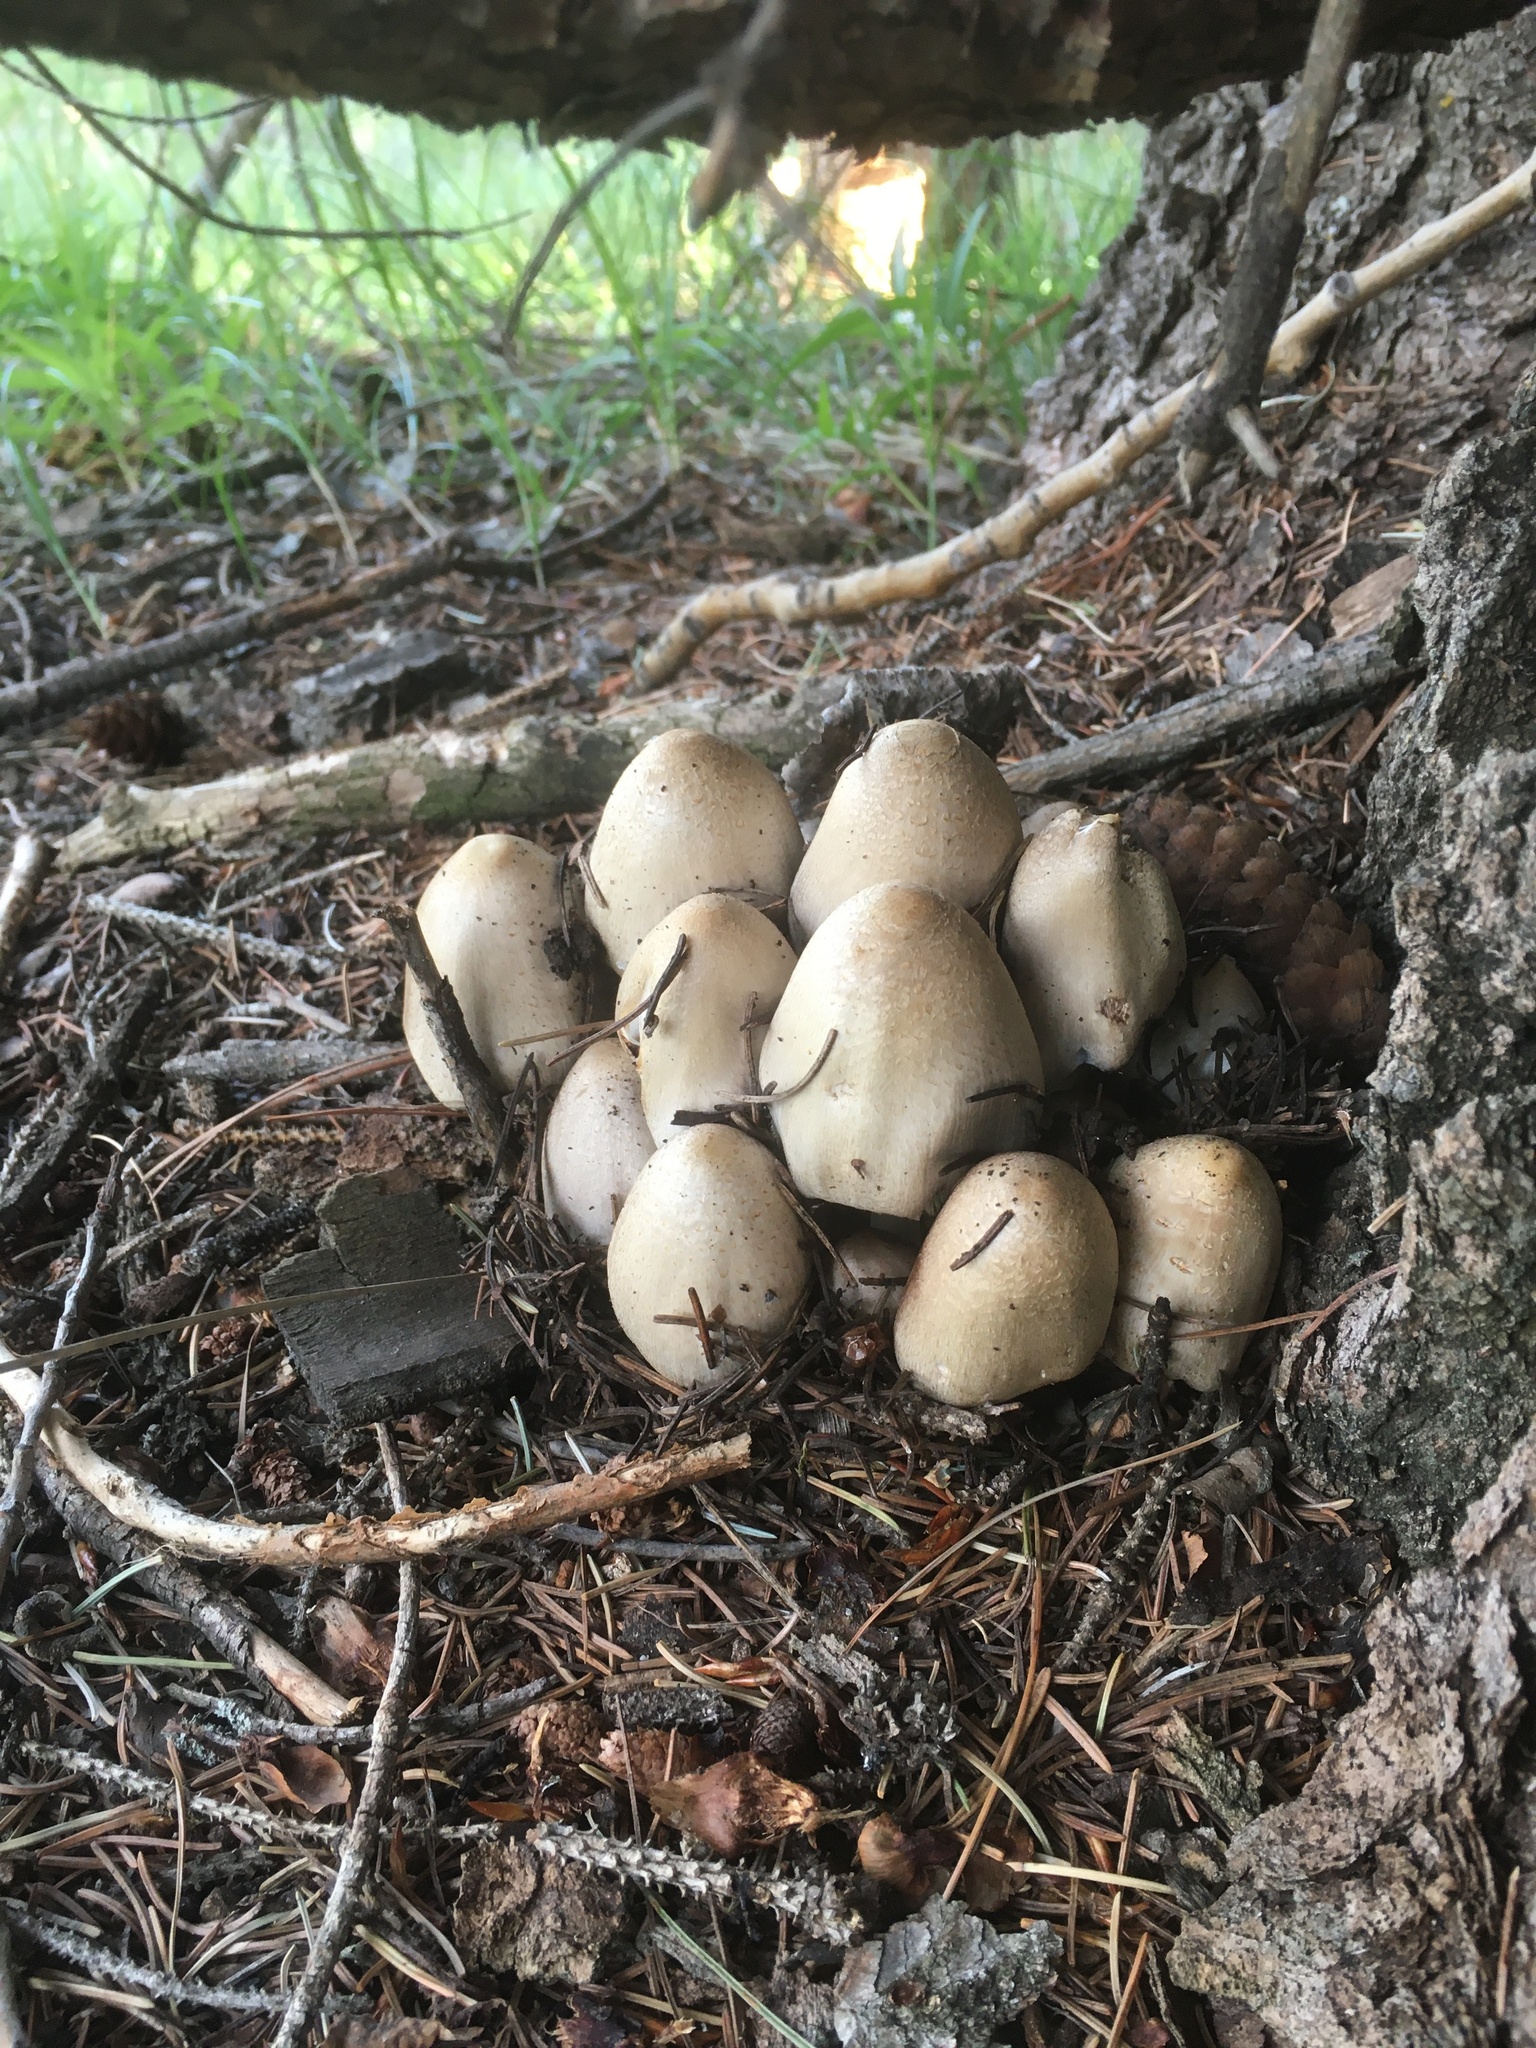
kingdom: Fungi
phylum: Basidiomycota
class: Agaricomycetes
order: Agaricales
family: Psathyrellaceae
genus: Coprinopsis
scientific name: Coprinopsis atramentaria
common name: Common ink-cap
